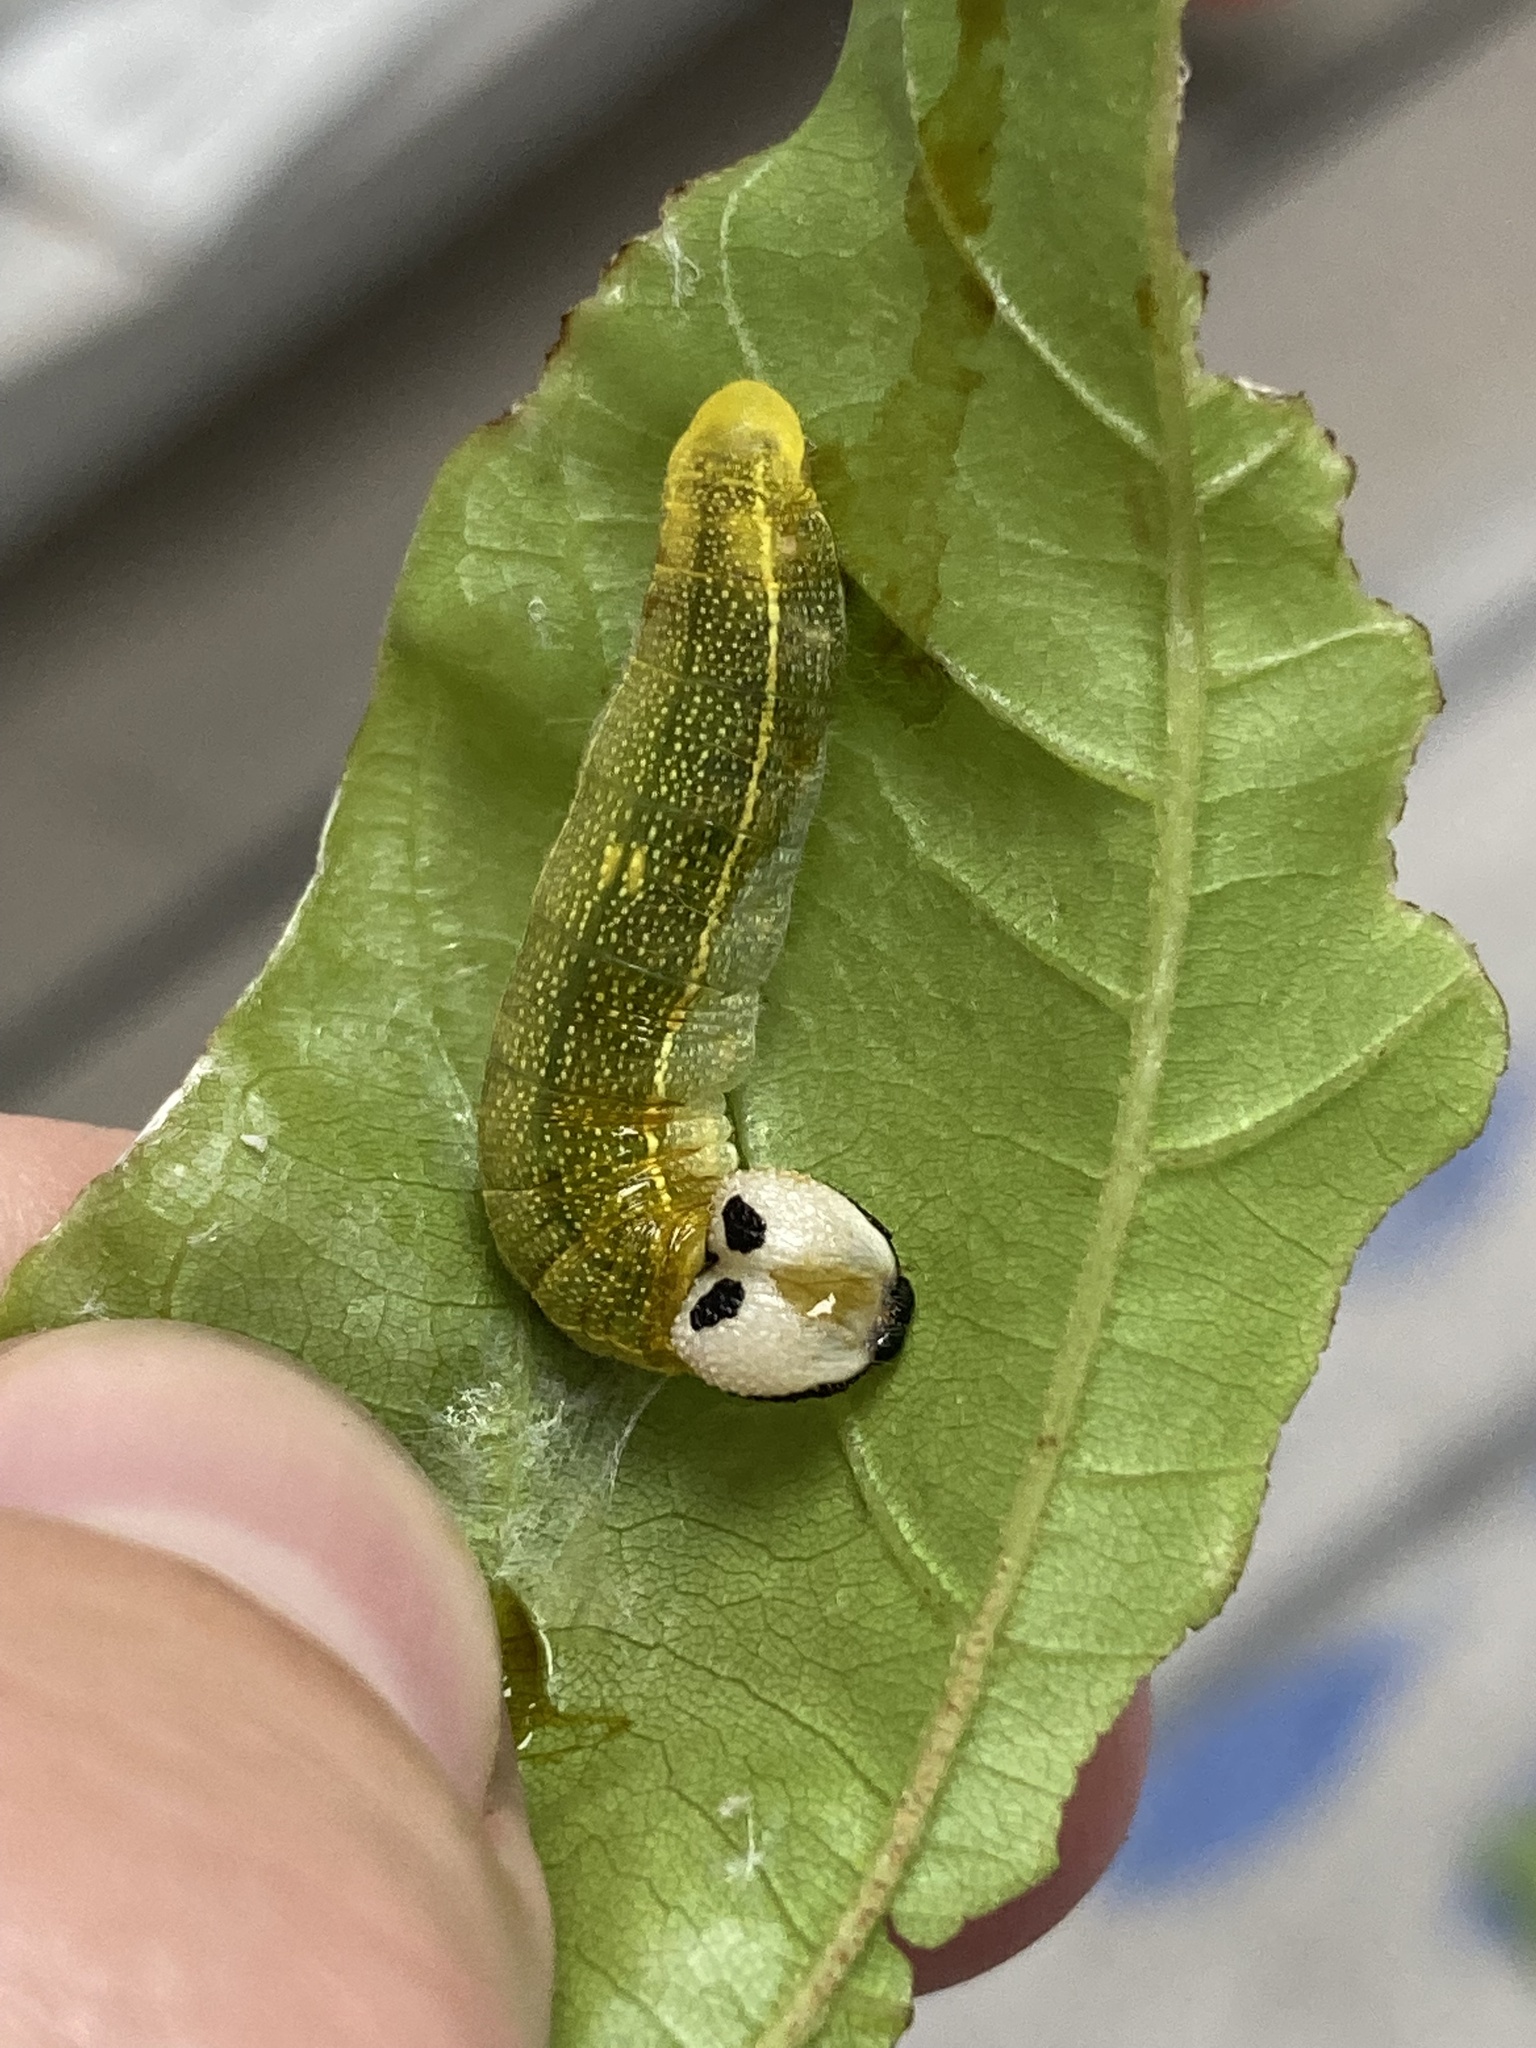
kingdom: Animalia
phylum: Arthropoda
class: Insecta
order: Lepidoptera
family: Hesperiidae
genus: Polygonus
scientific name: Polygonus leo
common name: Hammoch skipper
